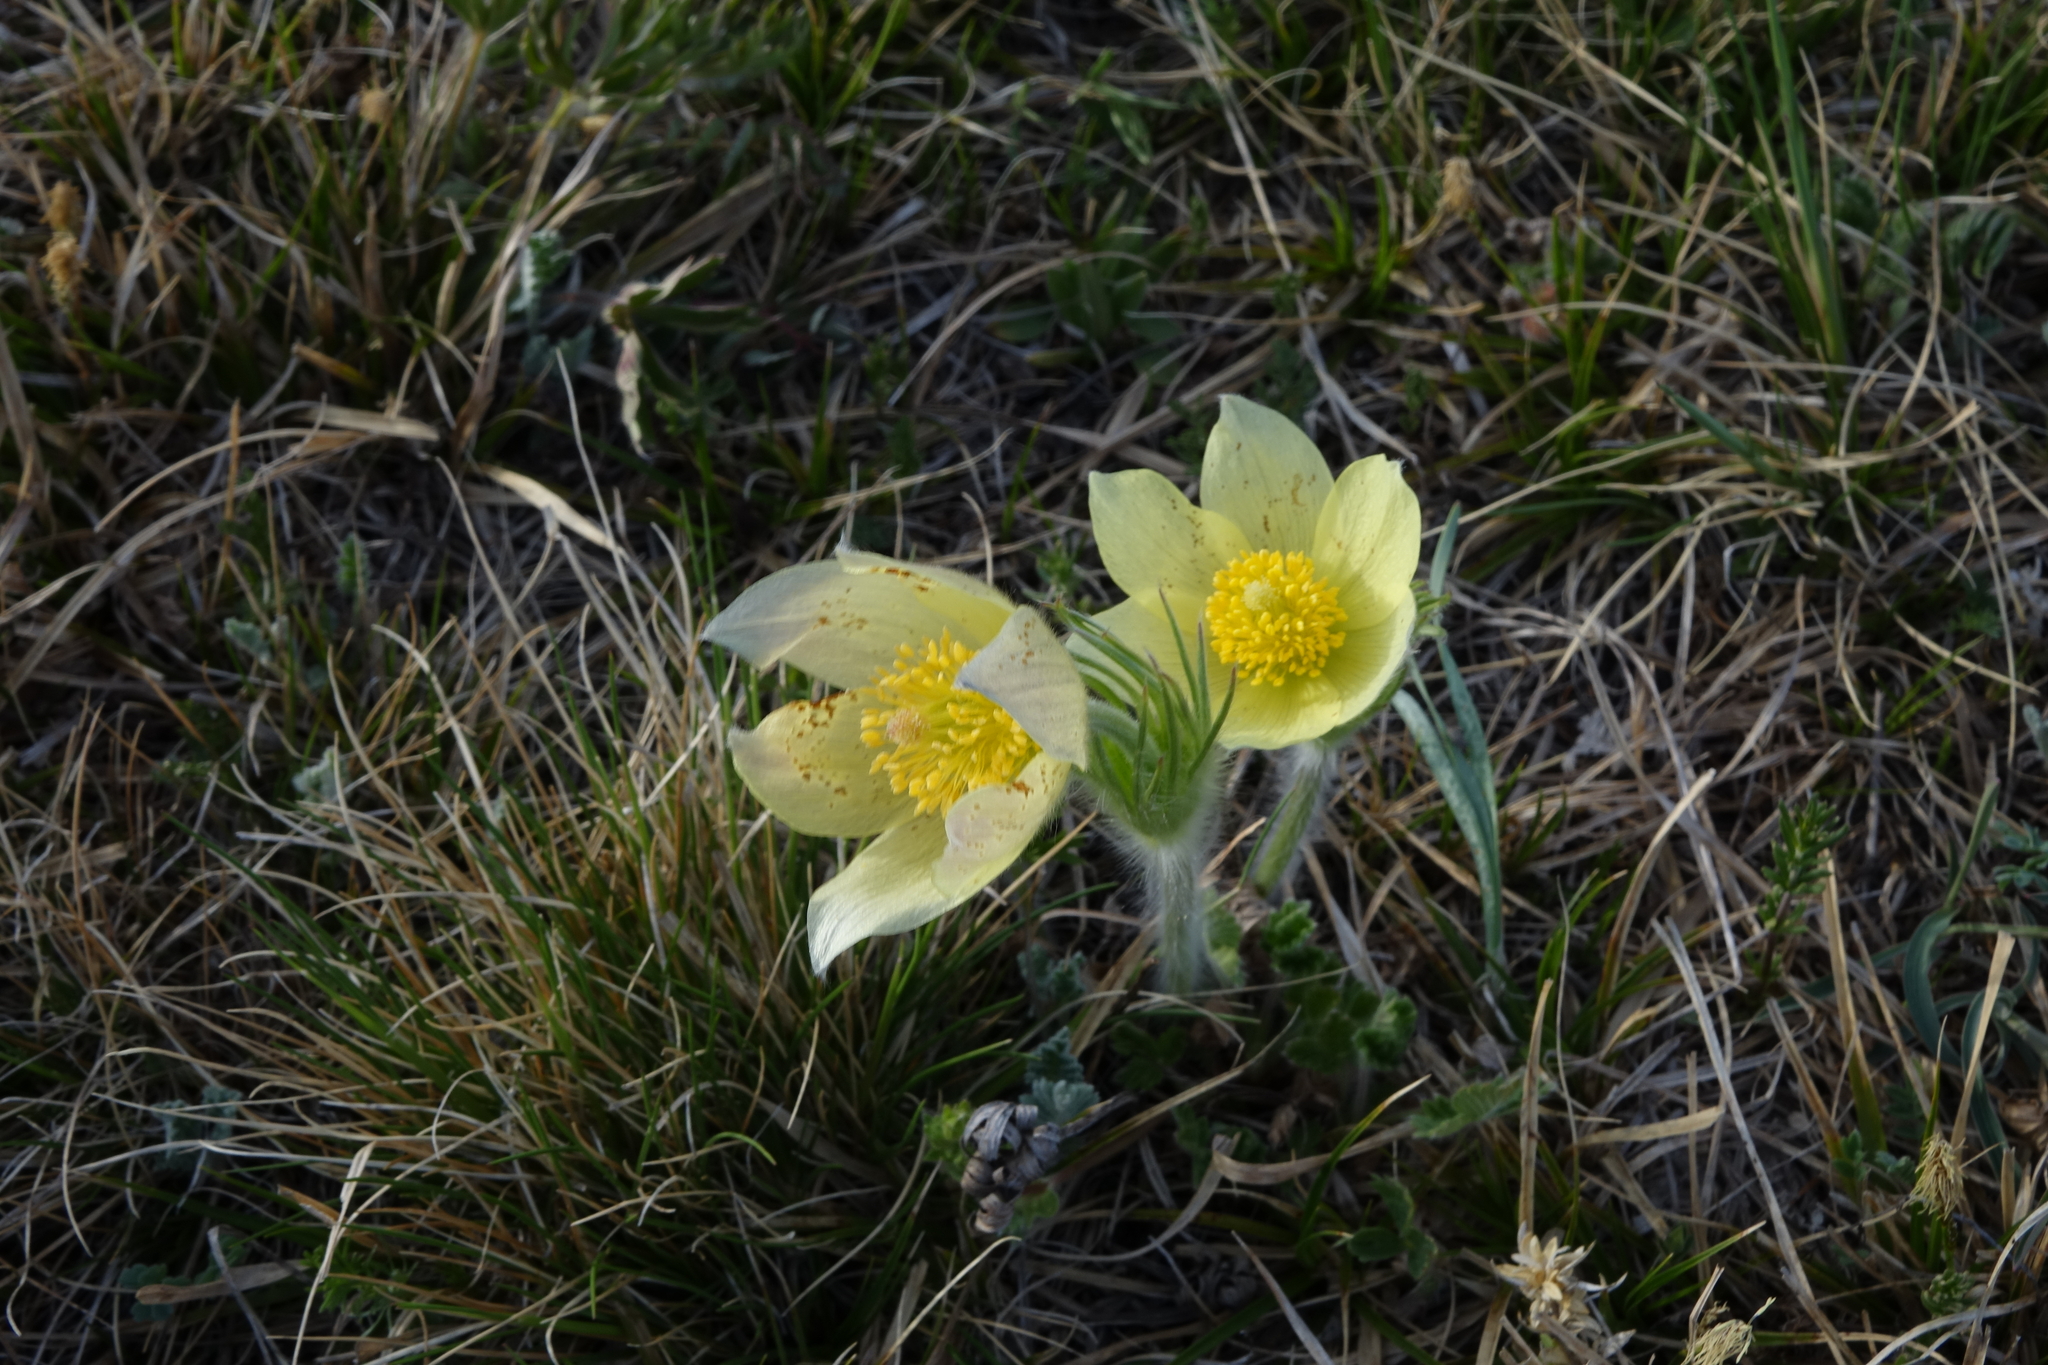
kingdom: Plantae
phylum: Tracheophyta
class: Magnoliopsida
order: Ranunculales
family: Ranunculaceae
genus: Pulsatilla
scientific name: Pulsatilla patens
